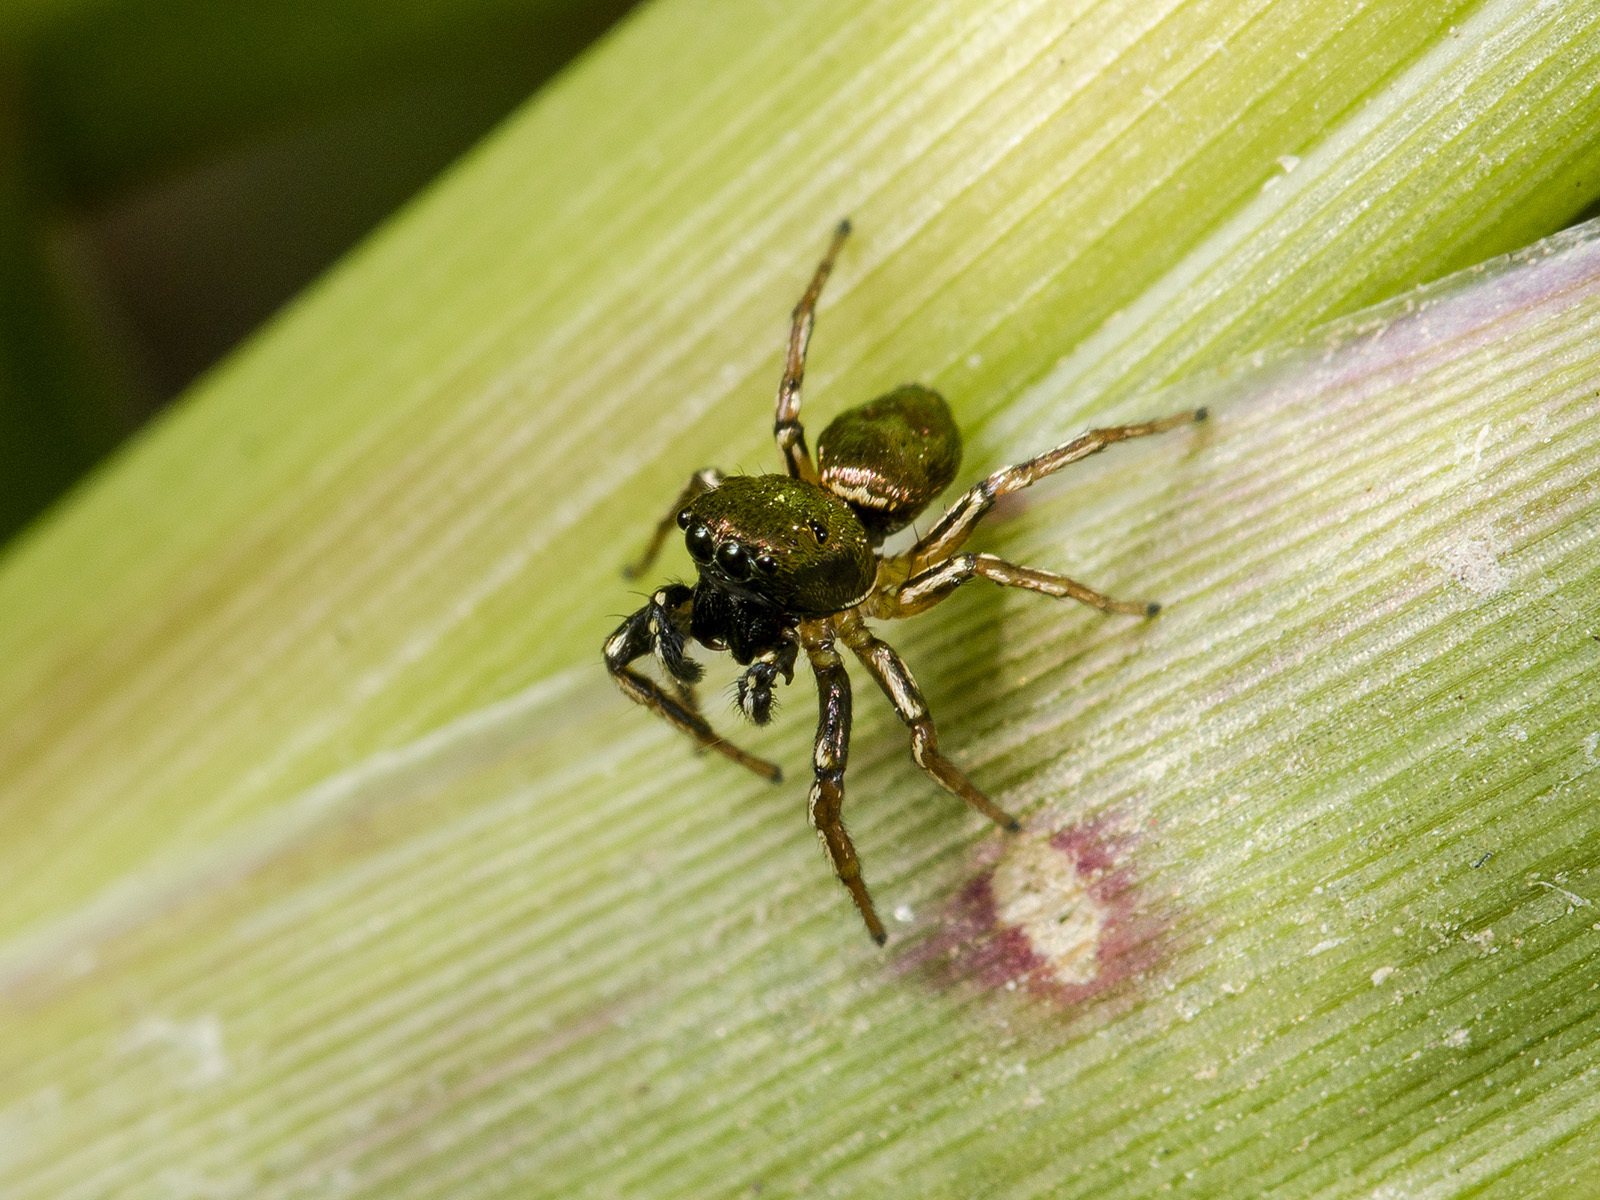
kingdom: Animalia
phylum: Arthropoda
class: Arachnida
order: Araneae
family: Salticidae
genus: Heliophanus
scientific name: Heliophanus auratus
